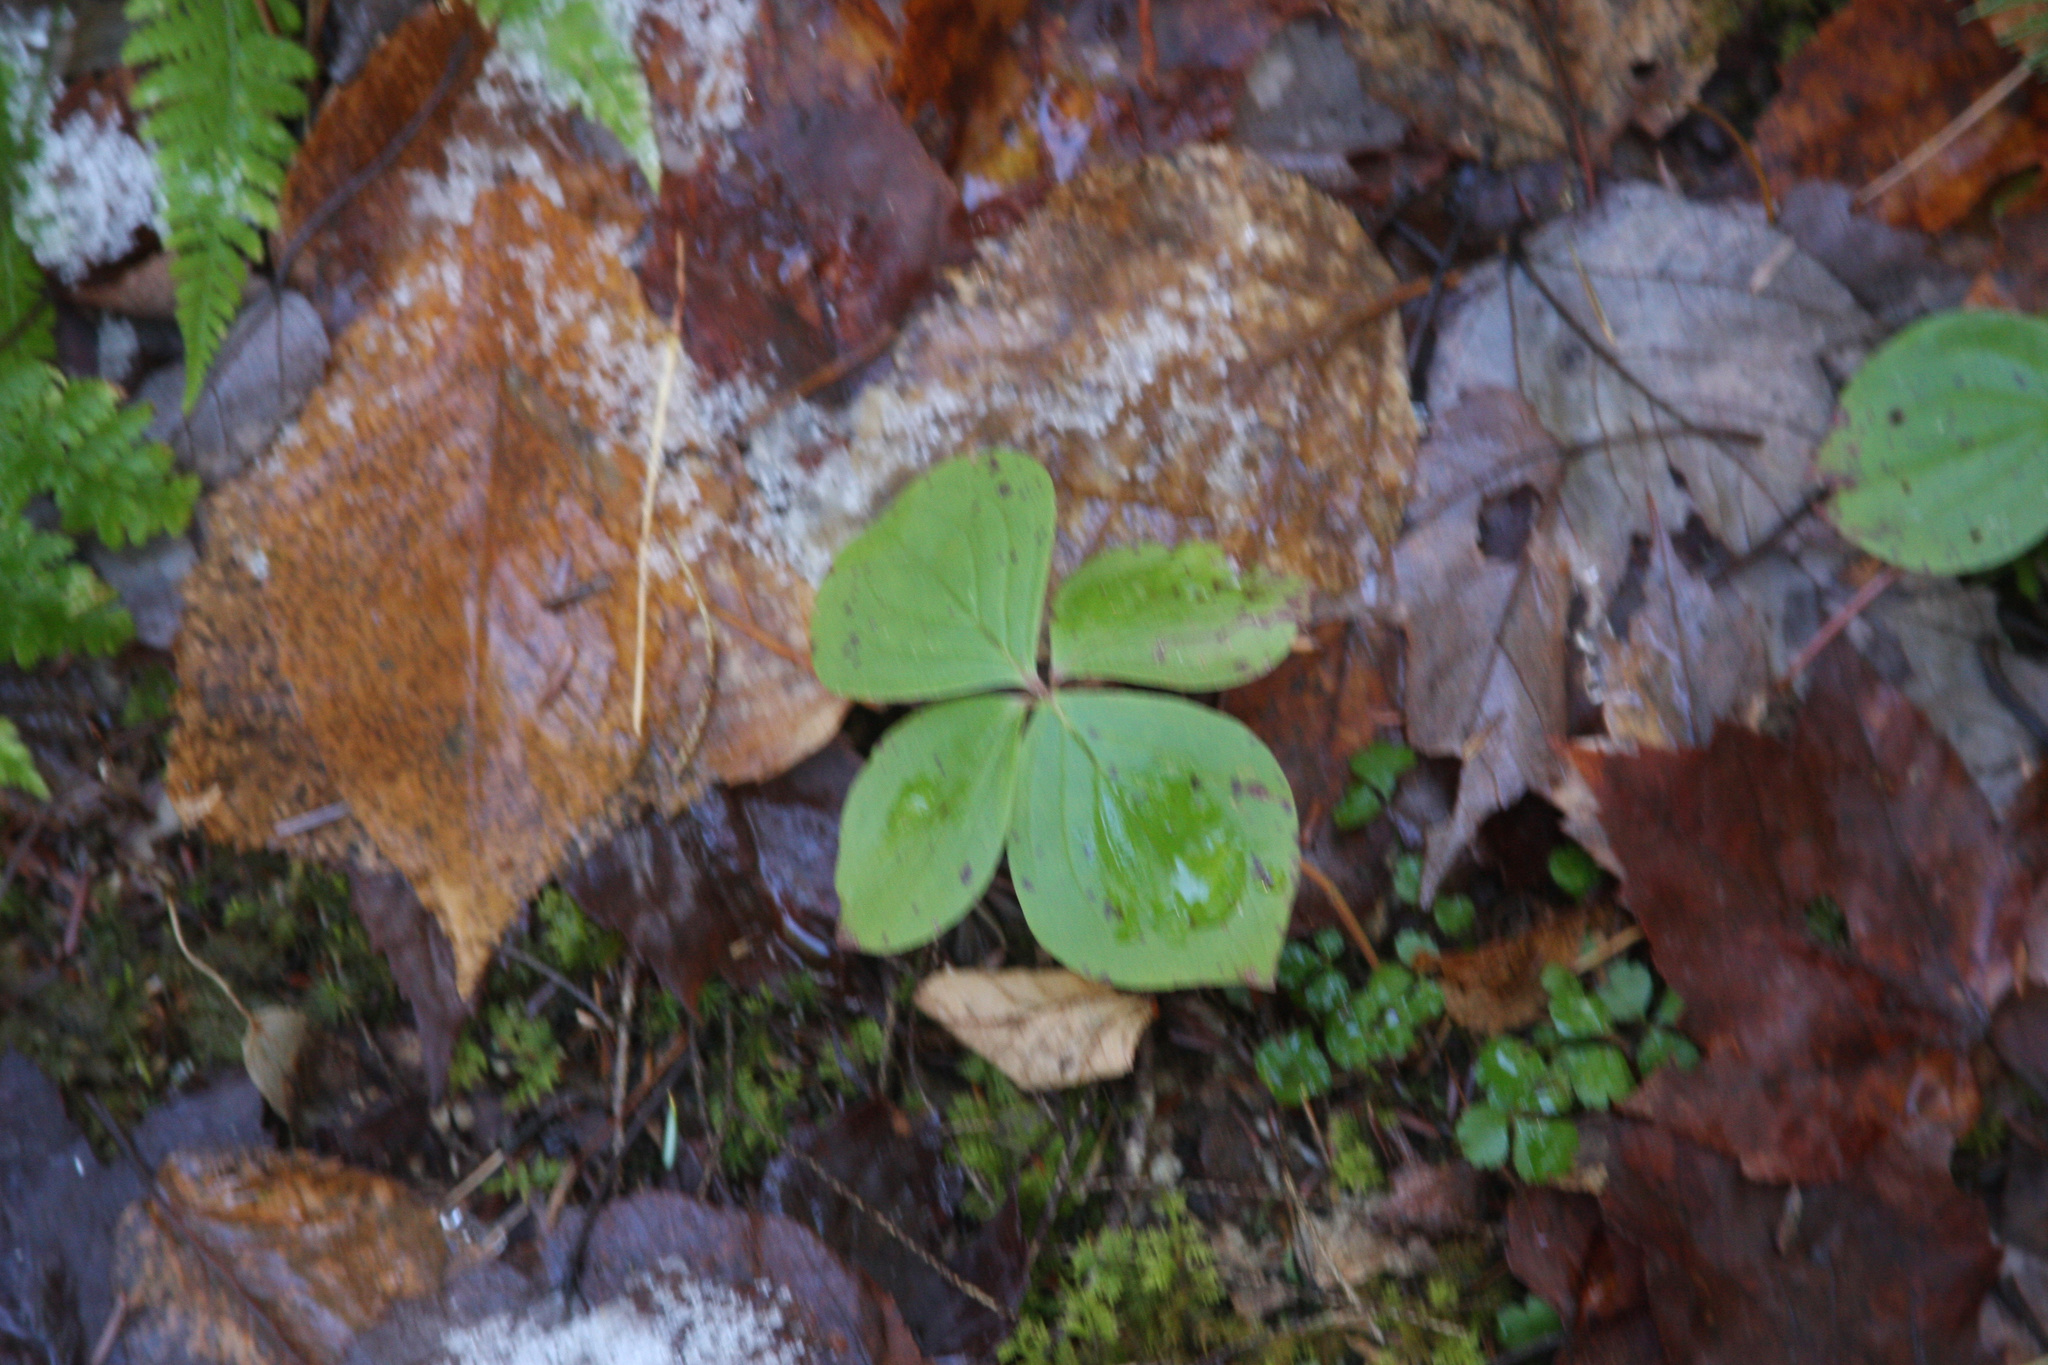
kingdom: Plantae
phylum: Tracheophyta
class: Magnoliopsida
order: Cornales
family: Cornaceae
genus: Cornus
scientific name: Cornus canadensis
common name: Creeping dogwood
